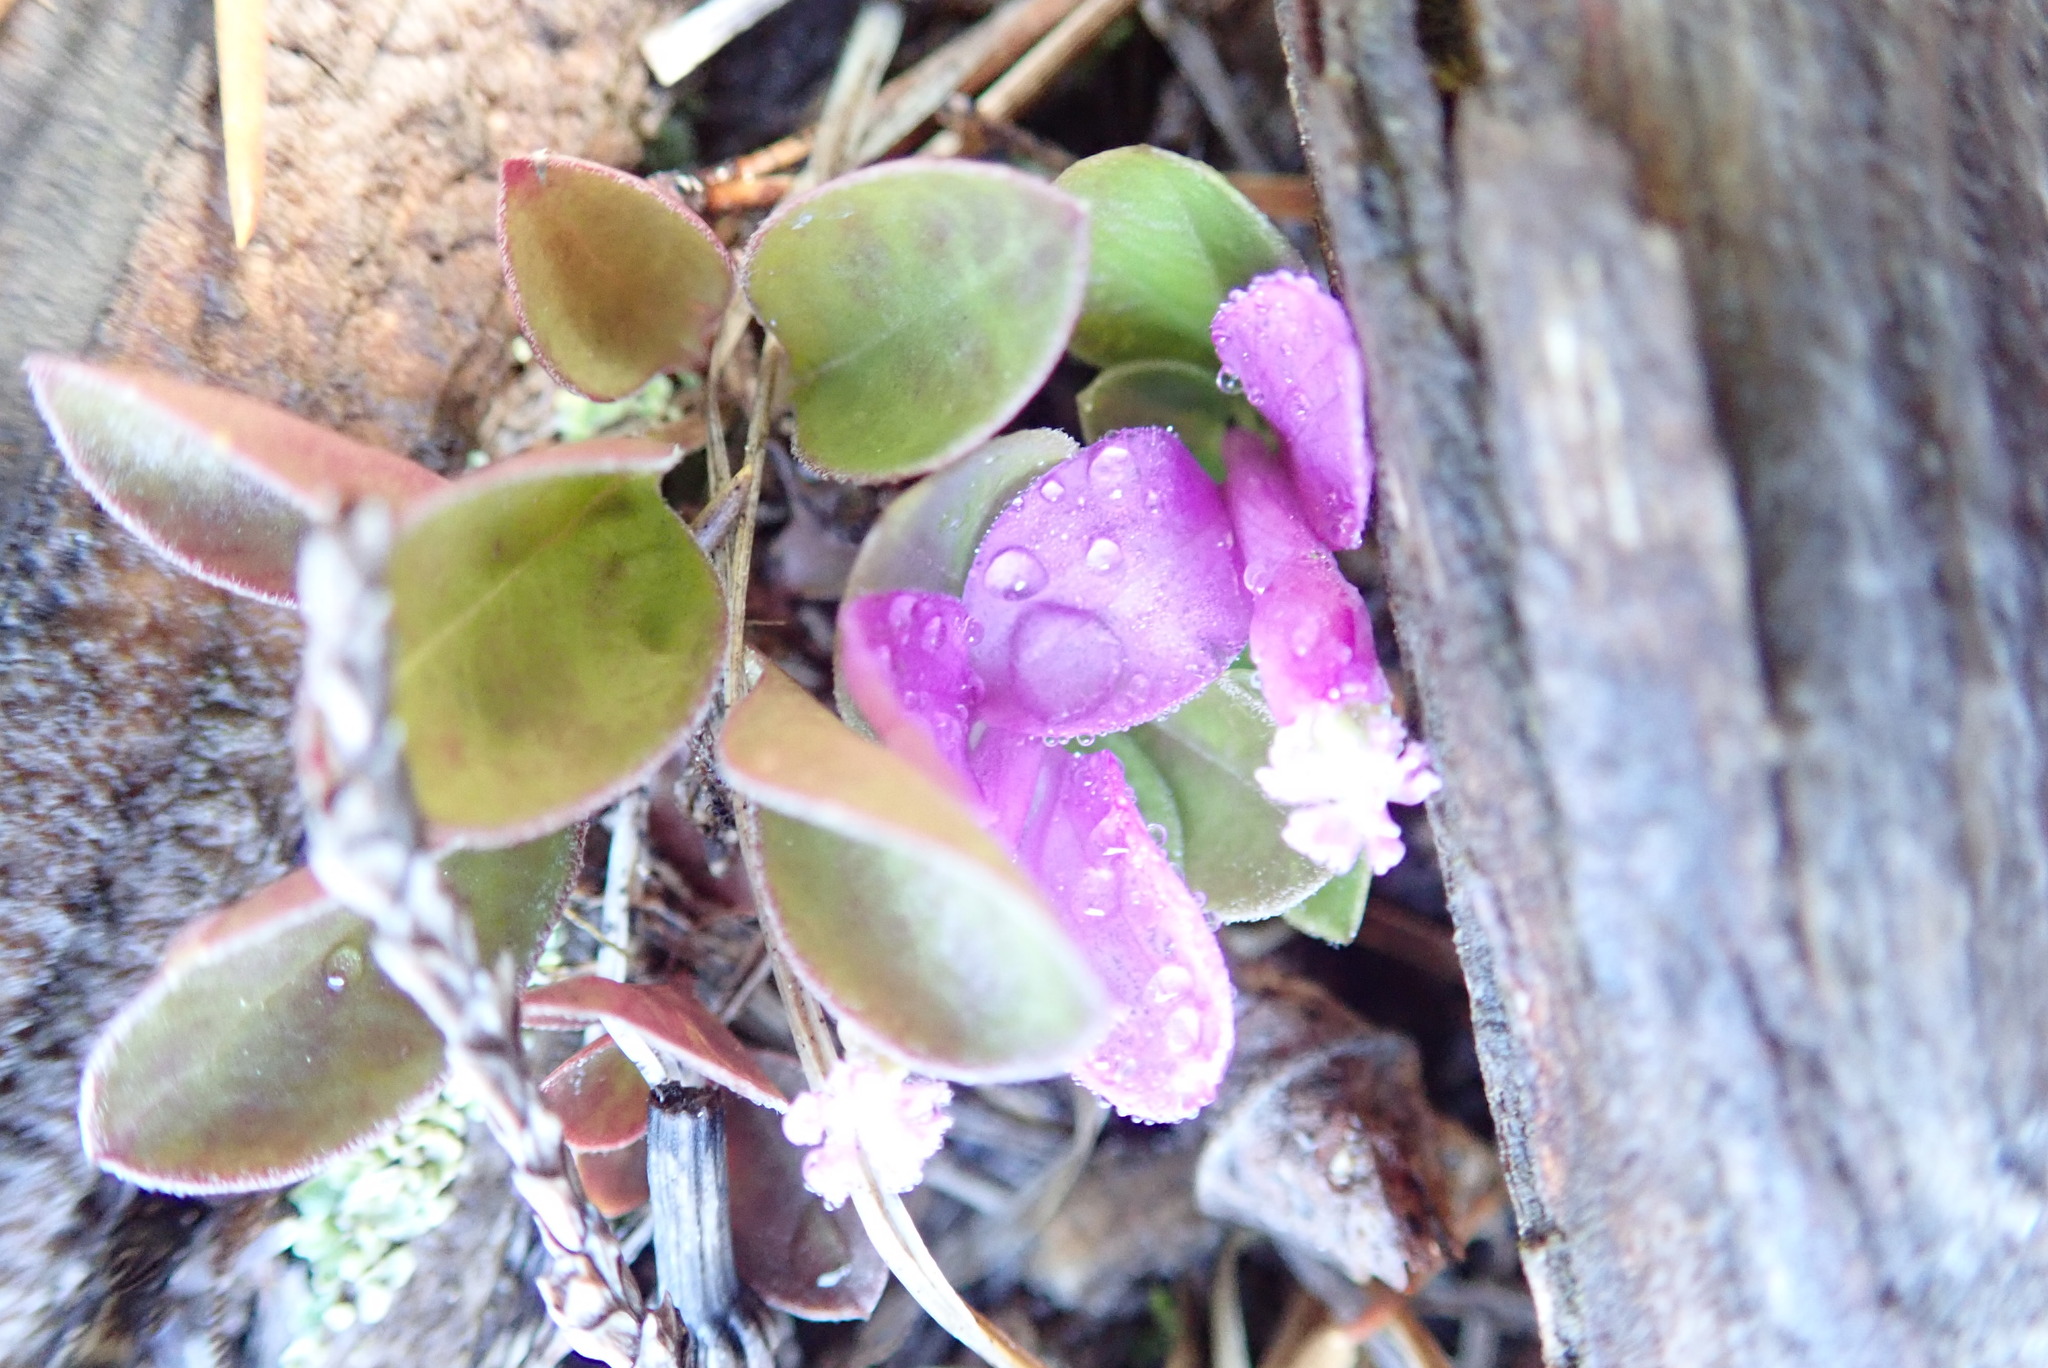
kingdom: Plantae
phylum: Tracheophyta
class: Magnoliopsida
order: Fabales
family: Polygalaceae
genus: Polygaloides
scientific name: Polygaloides paucifolia
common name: Bird-on-the-wing
